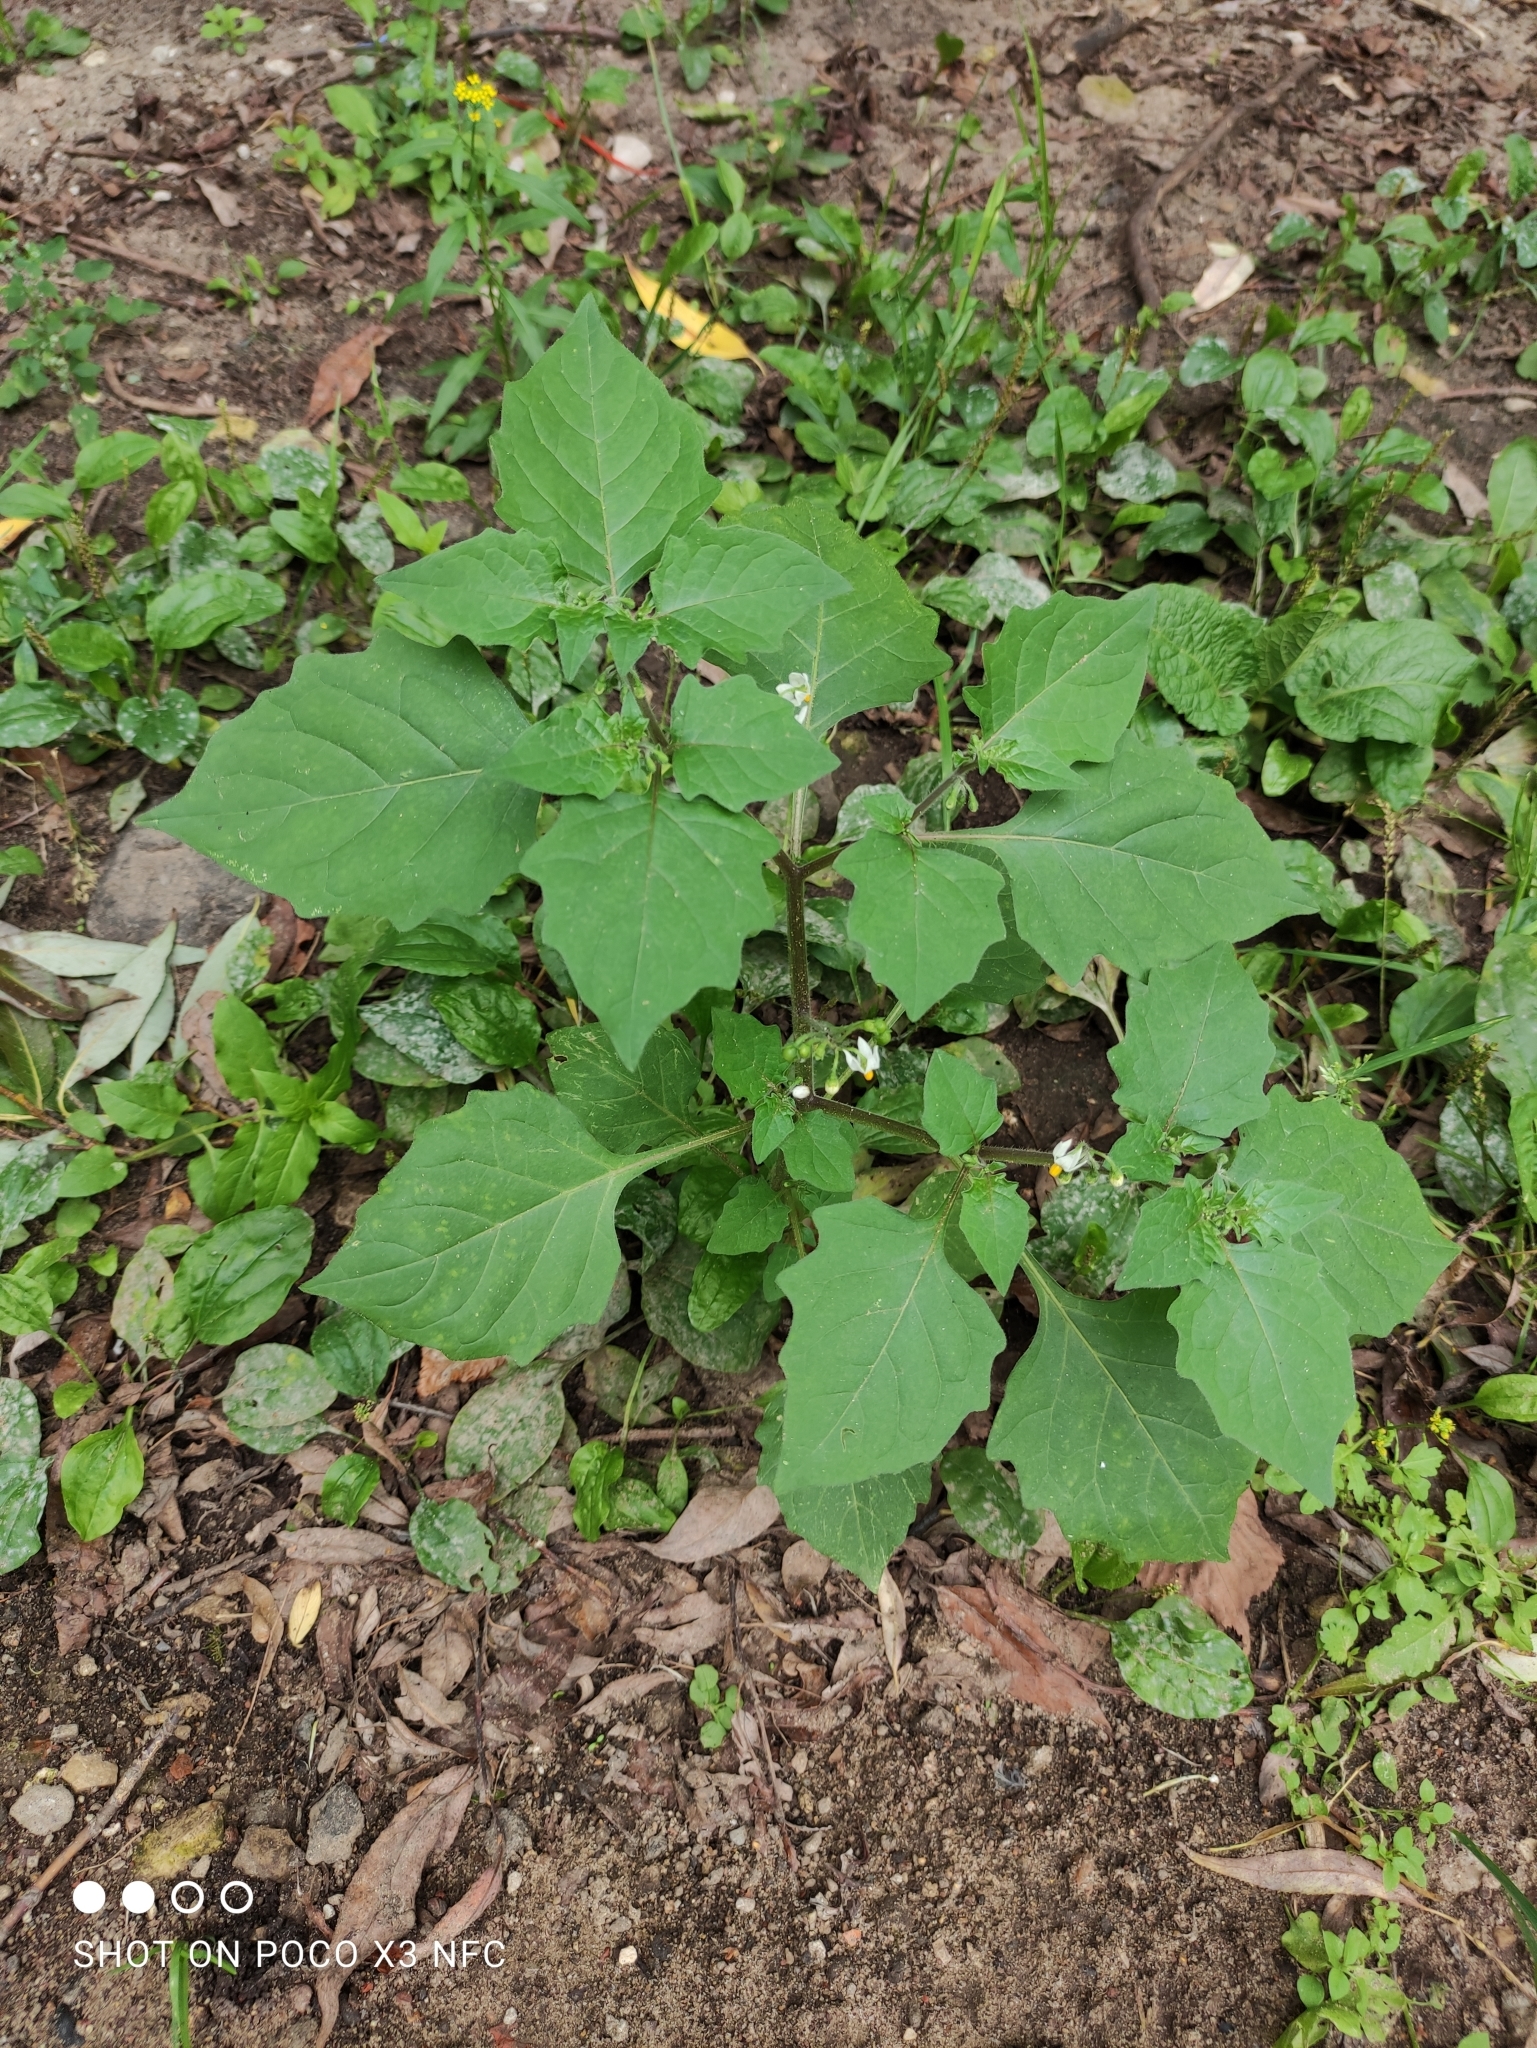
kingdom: Plantae
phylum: Tracheophyta
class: Magnoliopsida
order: Solanales
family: Solanaceae
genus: Solanum
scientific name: Solanum nigrum
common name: Black nightshade
